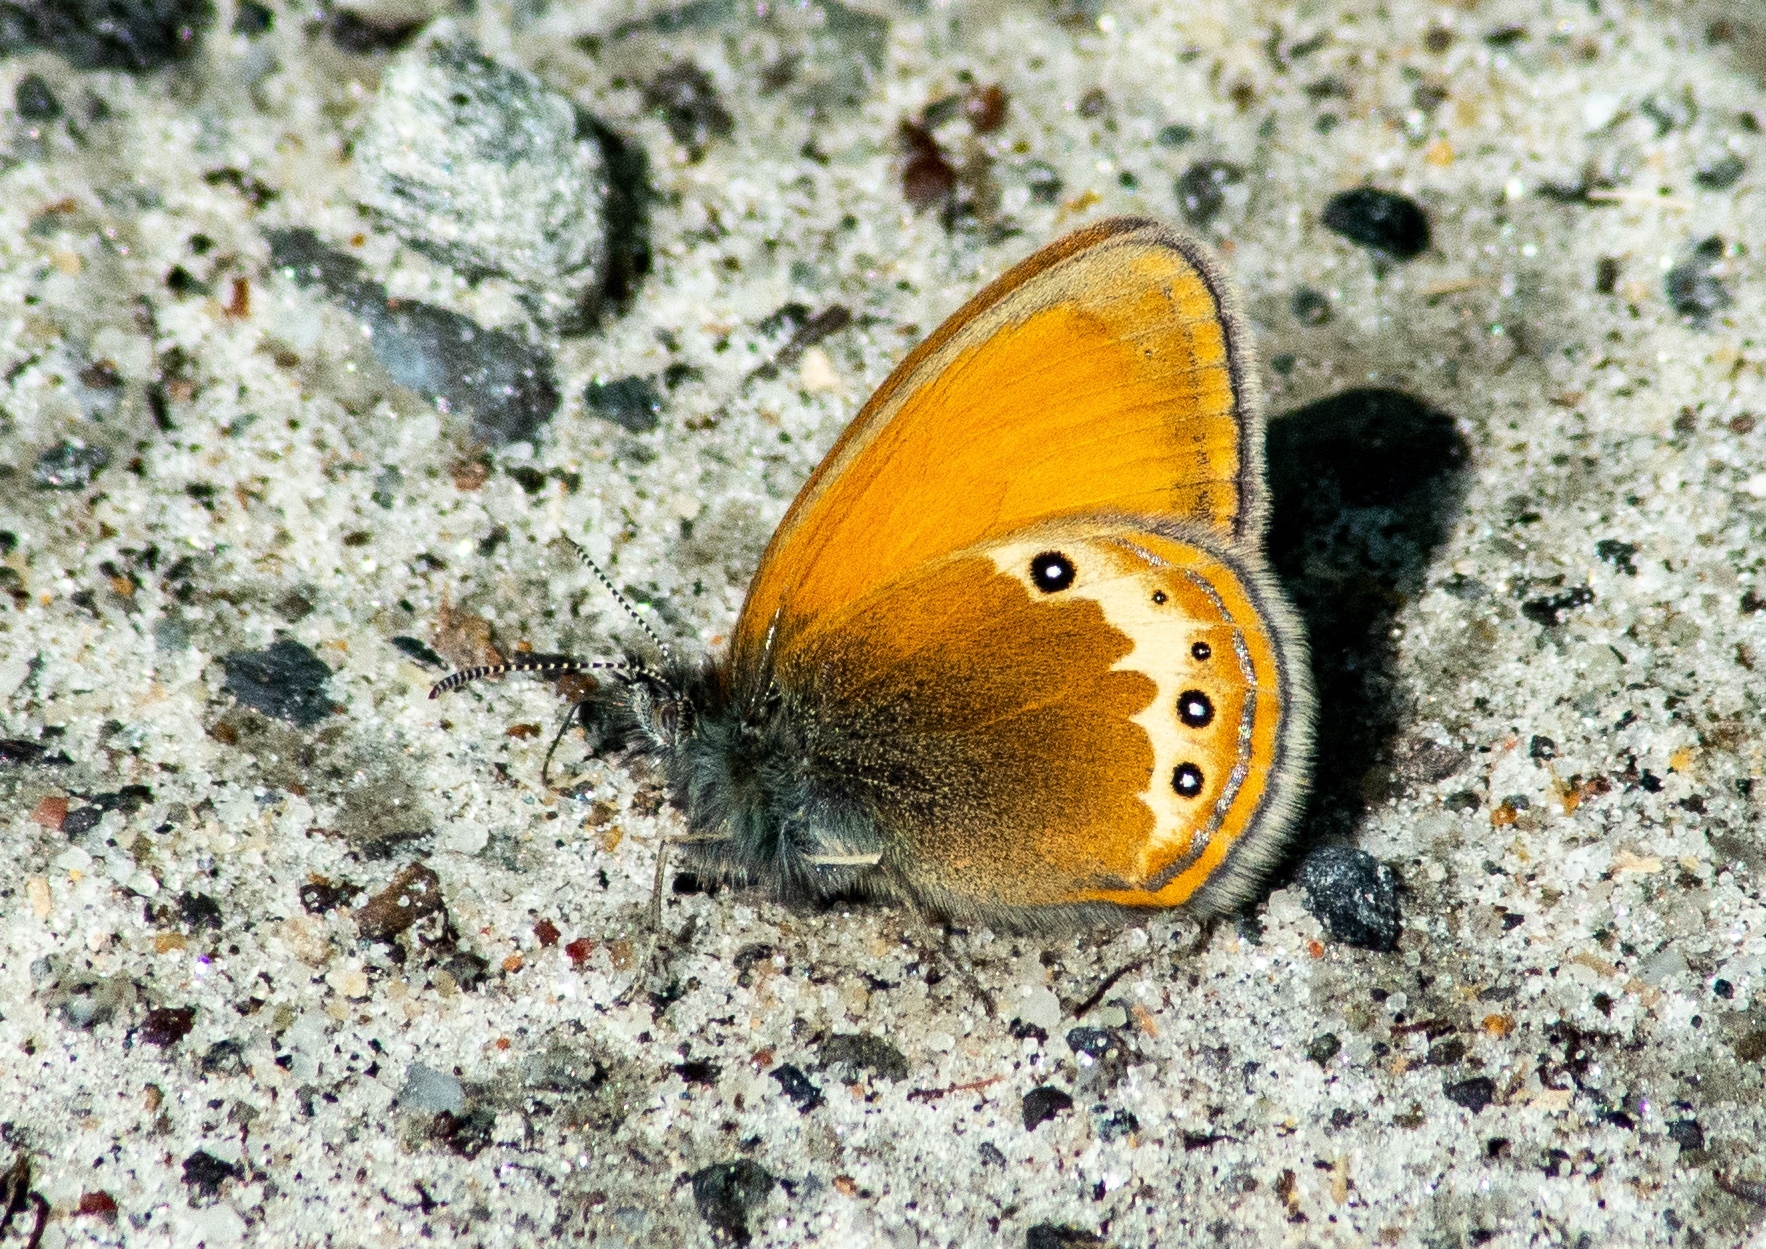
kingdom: Animalia
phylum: Arthropoda
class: Insecta
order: Lepidoptera
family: Nymphalidae
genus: Coenonympha
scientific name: Coenonympha
